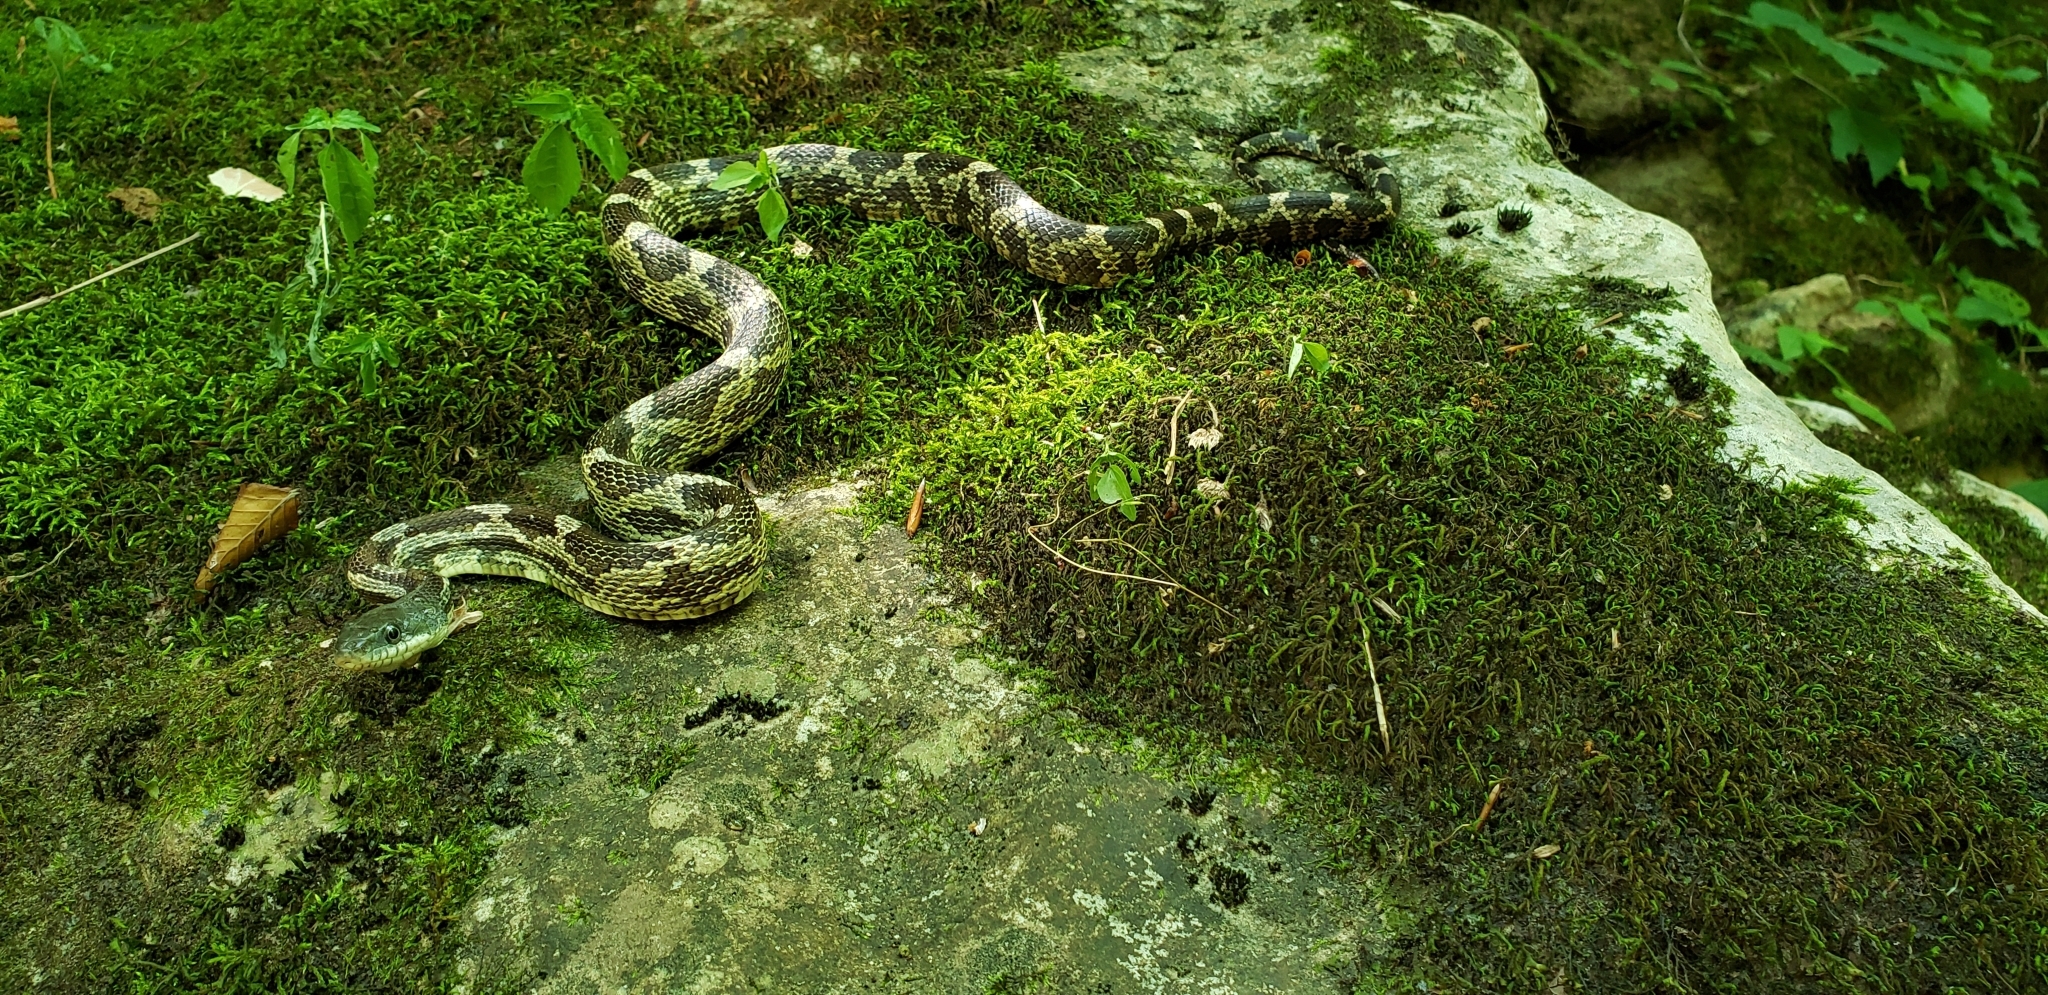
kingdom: Animalia
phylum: Chordata
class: Squamata
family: Colubridae
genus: Pantherophis
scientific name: Pantherophis spiloides
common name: Gray rat snake
